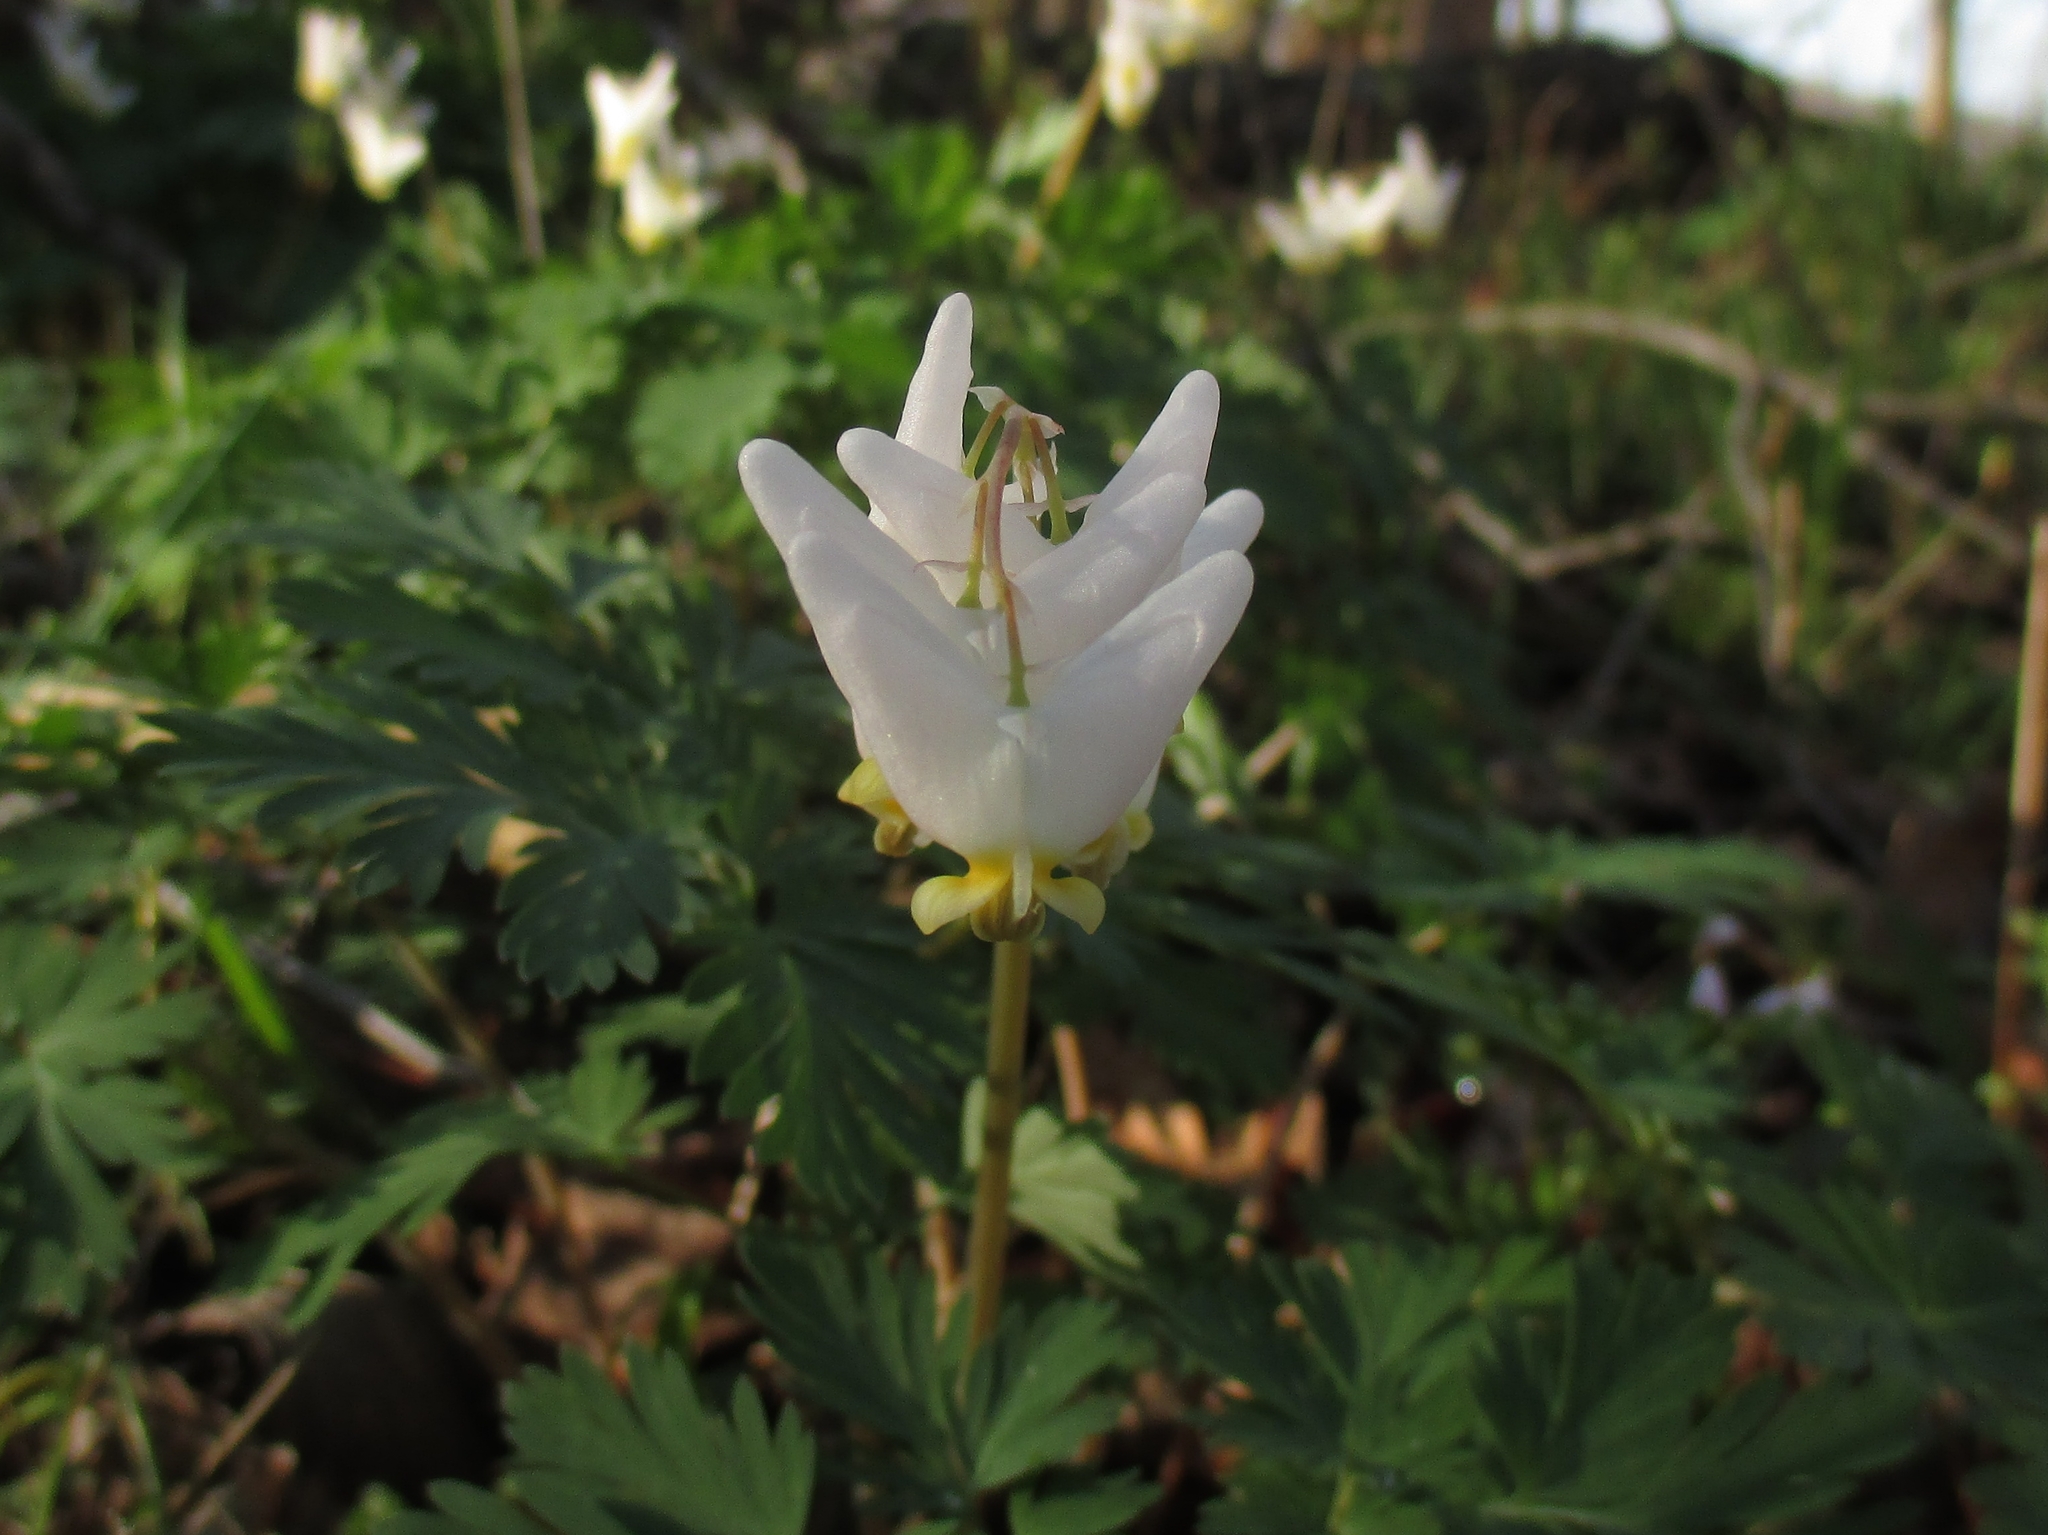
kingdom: Plantae
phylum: Tracheophyta
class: Magnoliopsida
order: Ranunculales
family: Papaveraceae
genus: Dicentra
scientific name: Dicentra cucullaria
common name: Dutchman's breeches
